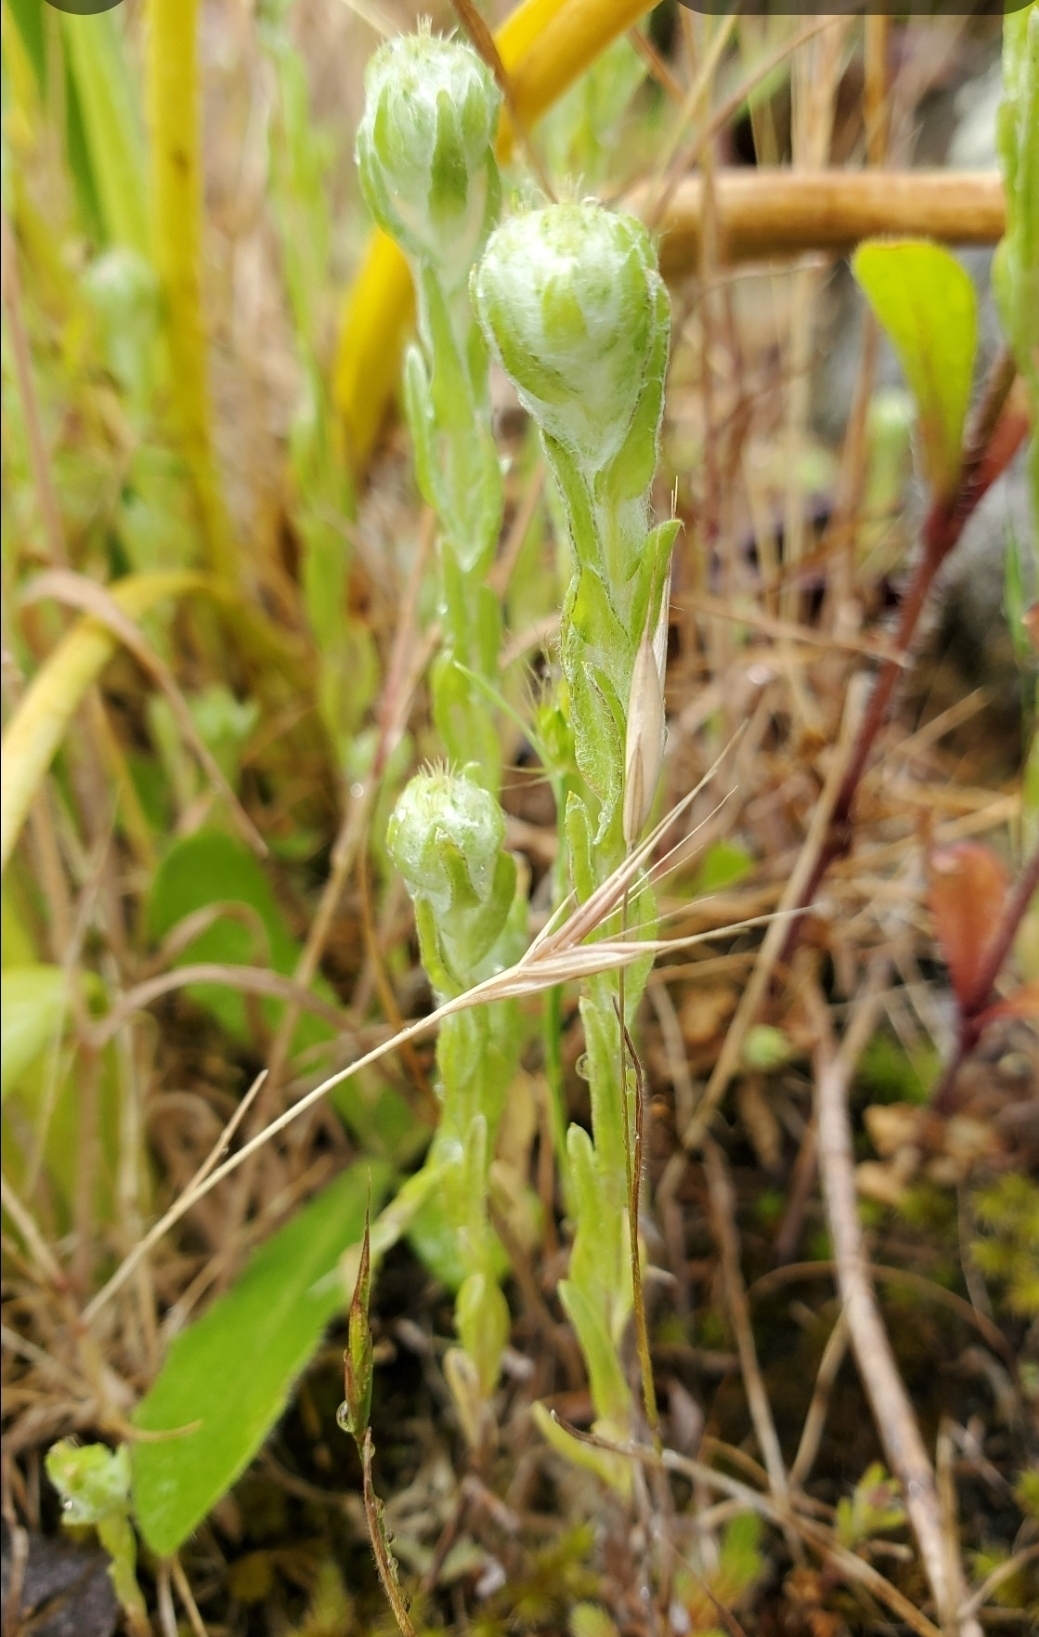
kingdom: Plantae
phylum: Tracheophyta
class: Magnoliopsida
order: Asterales
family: Asteraceae
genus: Filago
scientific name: Filago germanica
